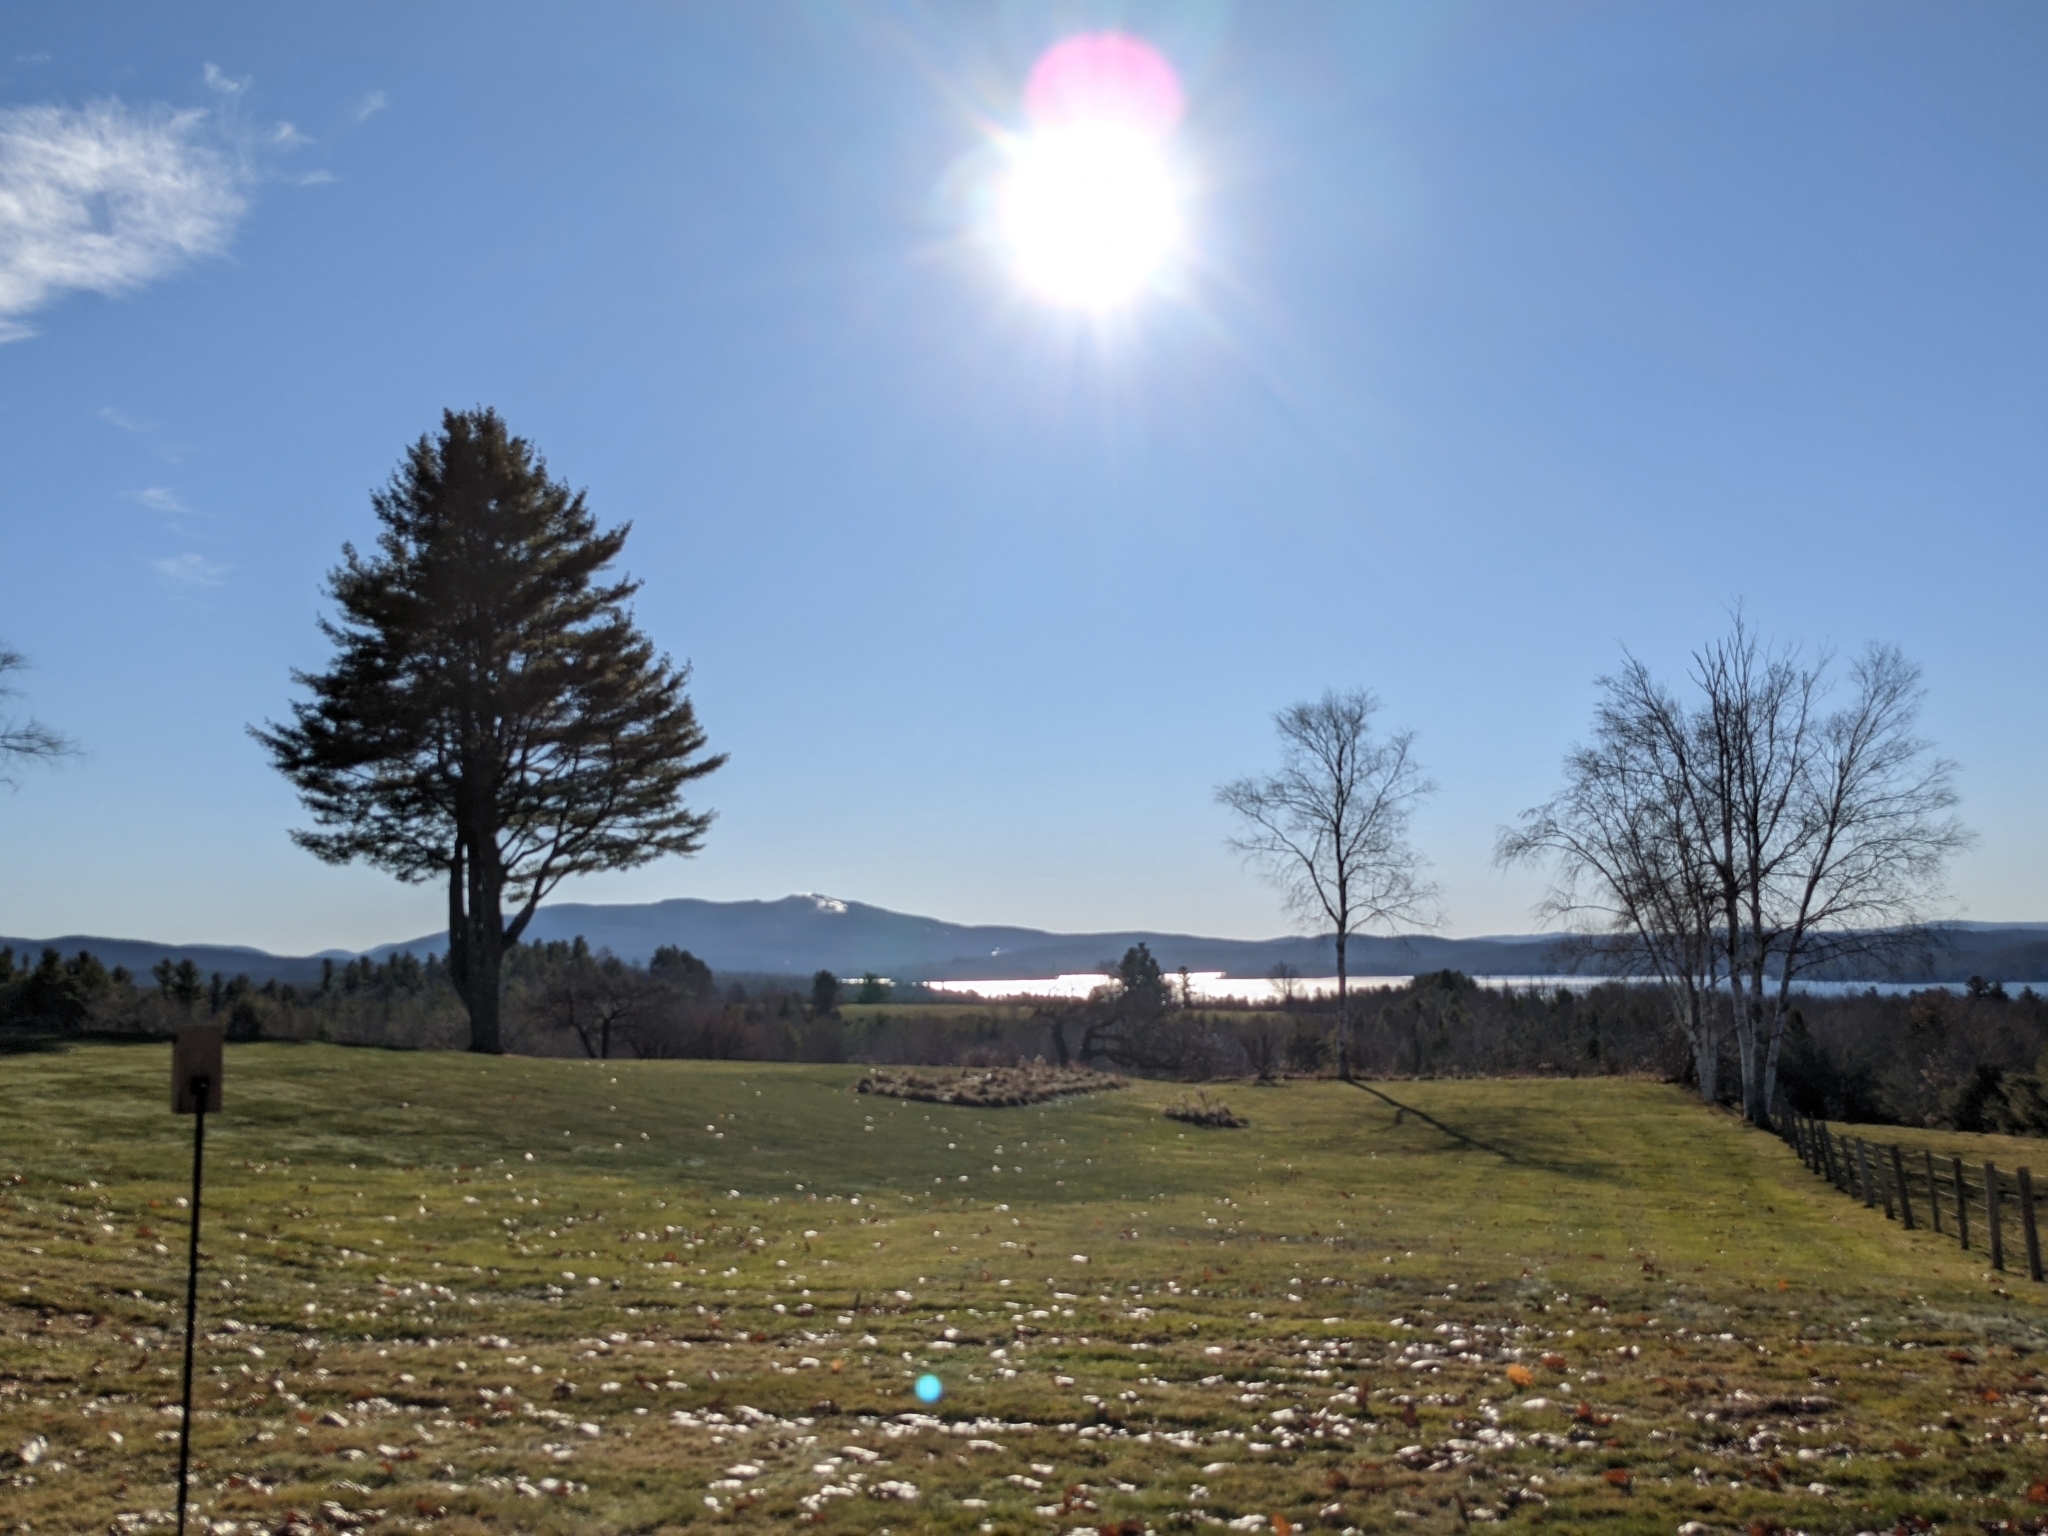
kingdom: Plantae
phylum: Tracheophyta
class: Pinopsida
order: Pinales
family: Pinaceae
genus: Pinus
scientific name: Pinus strobus
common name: Weymouth pine
